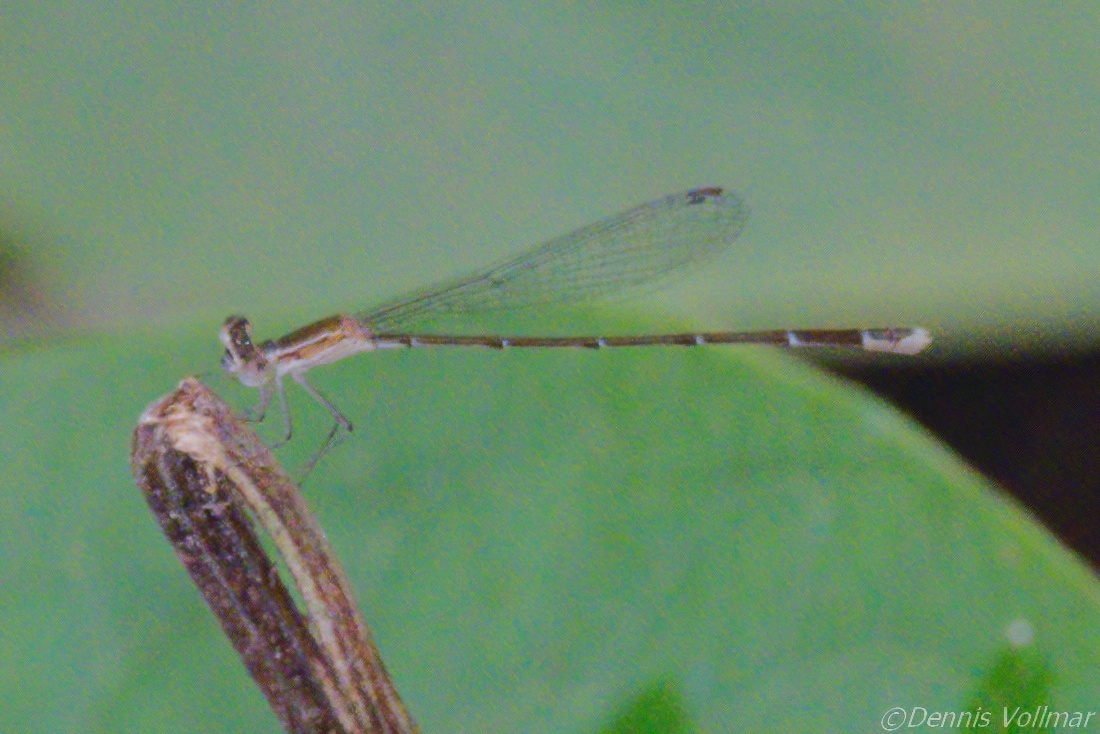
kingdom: Animalia
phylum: Arthropoda
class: Insecta
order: Odonata
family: Coenagrionidae
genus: Nehalennia
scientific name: Nehalennia pallidula
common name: Everglades sprite
